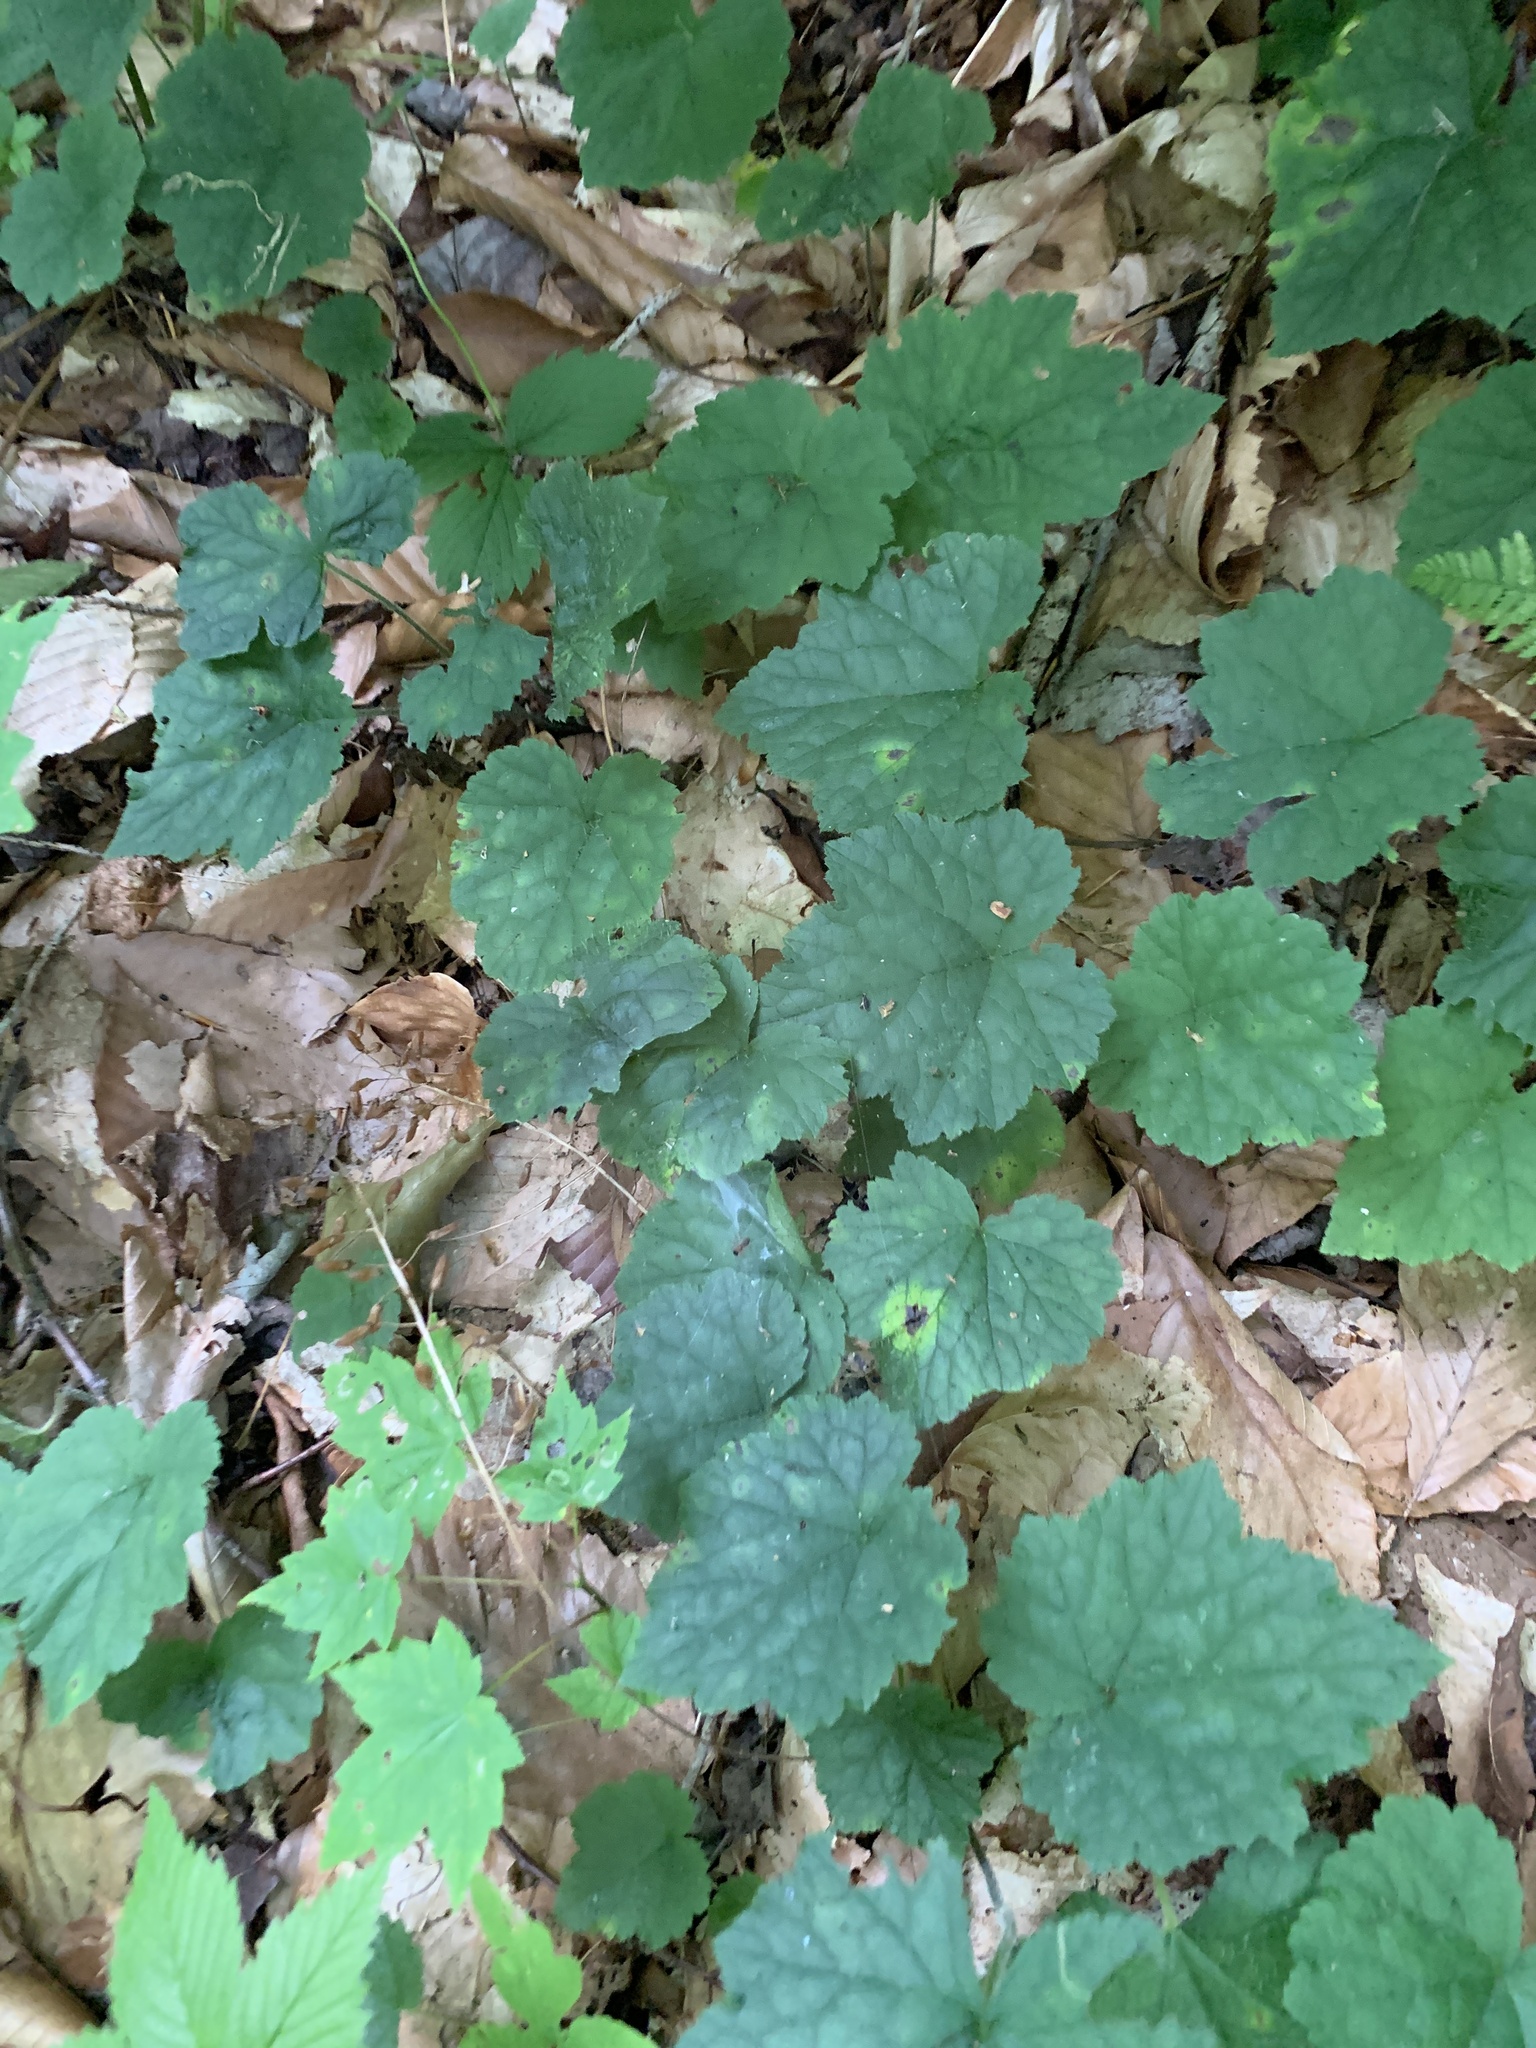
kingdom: Plantae
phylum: Tracheophyta
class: Magnoliopsida
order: Saxifragales
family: Saxifragaceae
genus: Tiarella
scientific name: Tiarella stolonifera
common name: Stoloniferous foamflower
